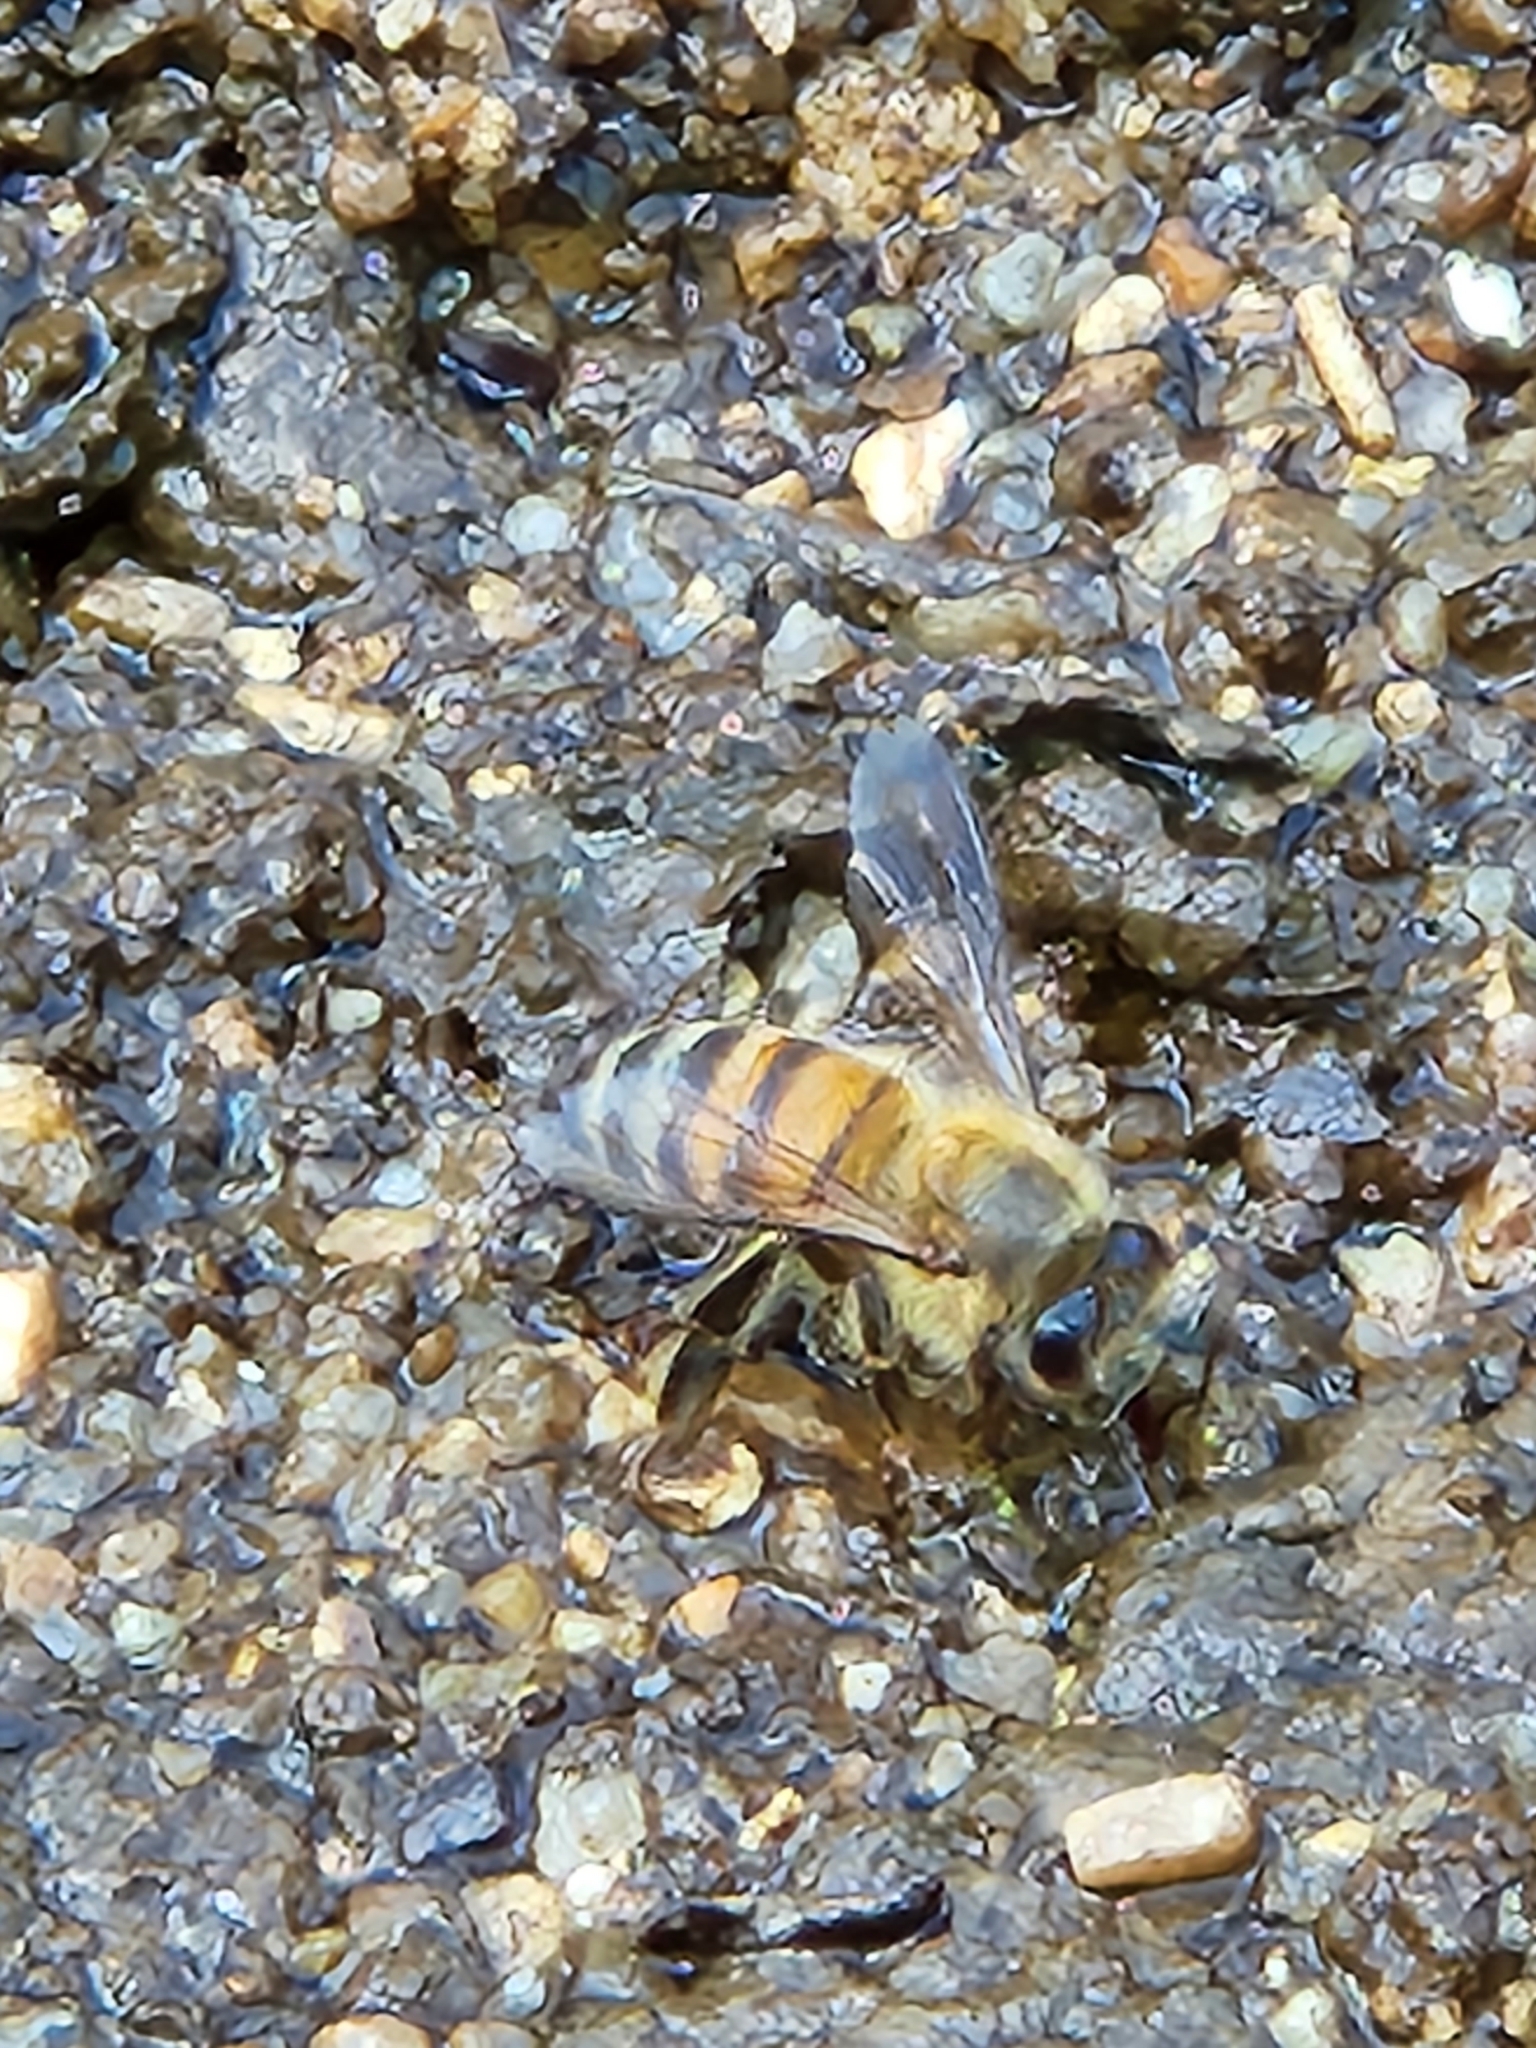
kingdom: Animalia
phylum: Arthropoda
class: Insecta
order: Hymenoptera
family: Apidae
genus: Apis
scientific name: Apis mellifera
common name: Honey bee
